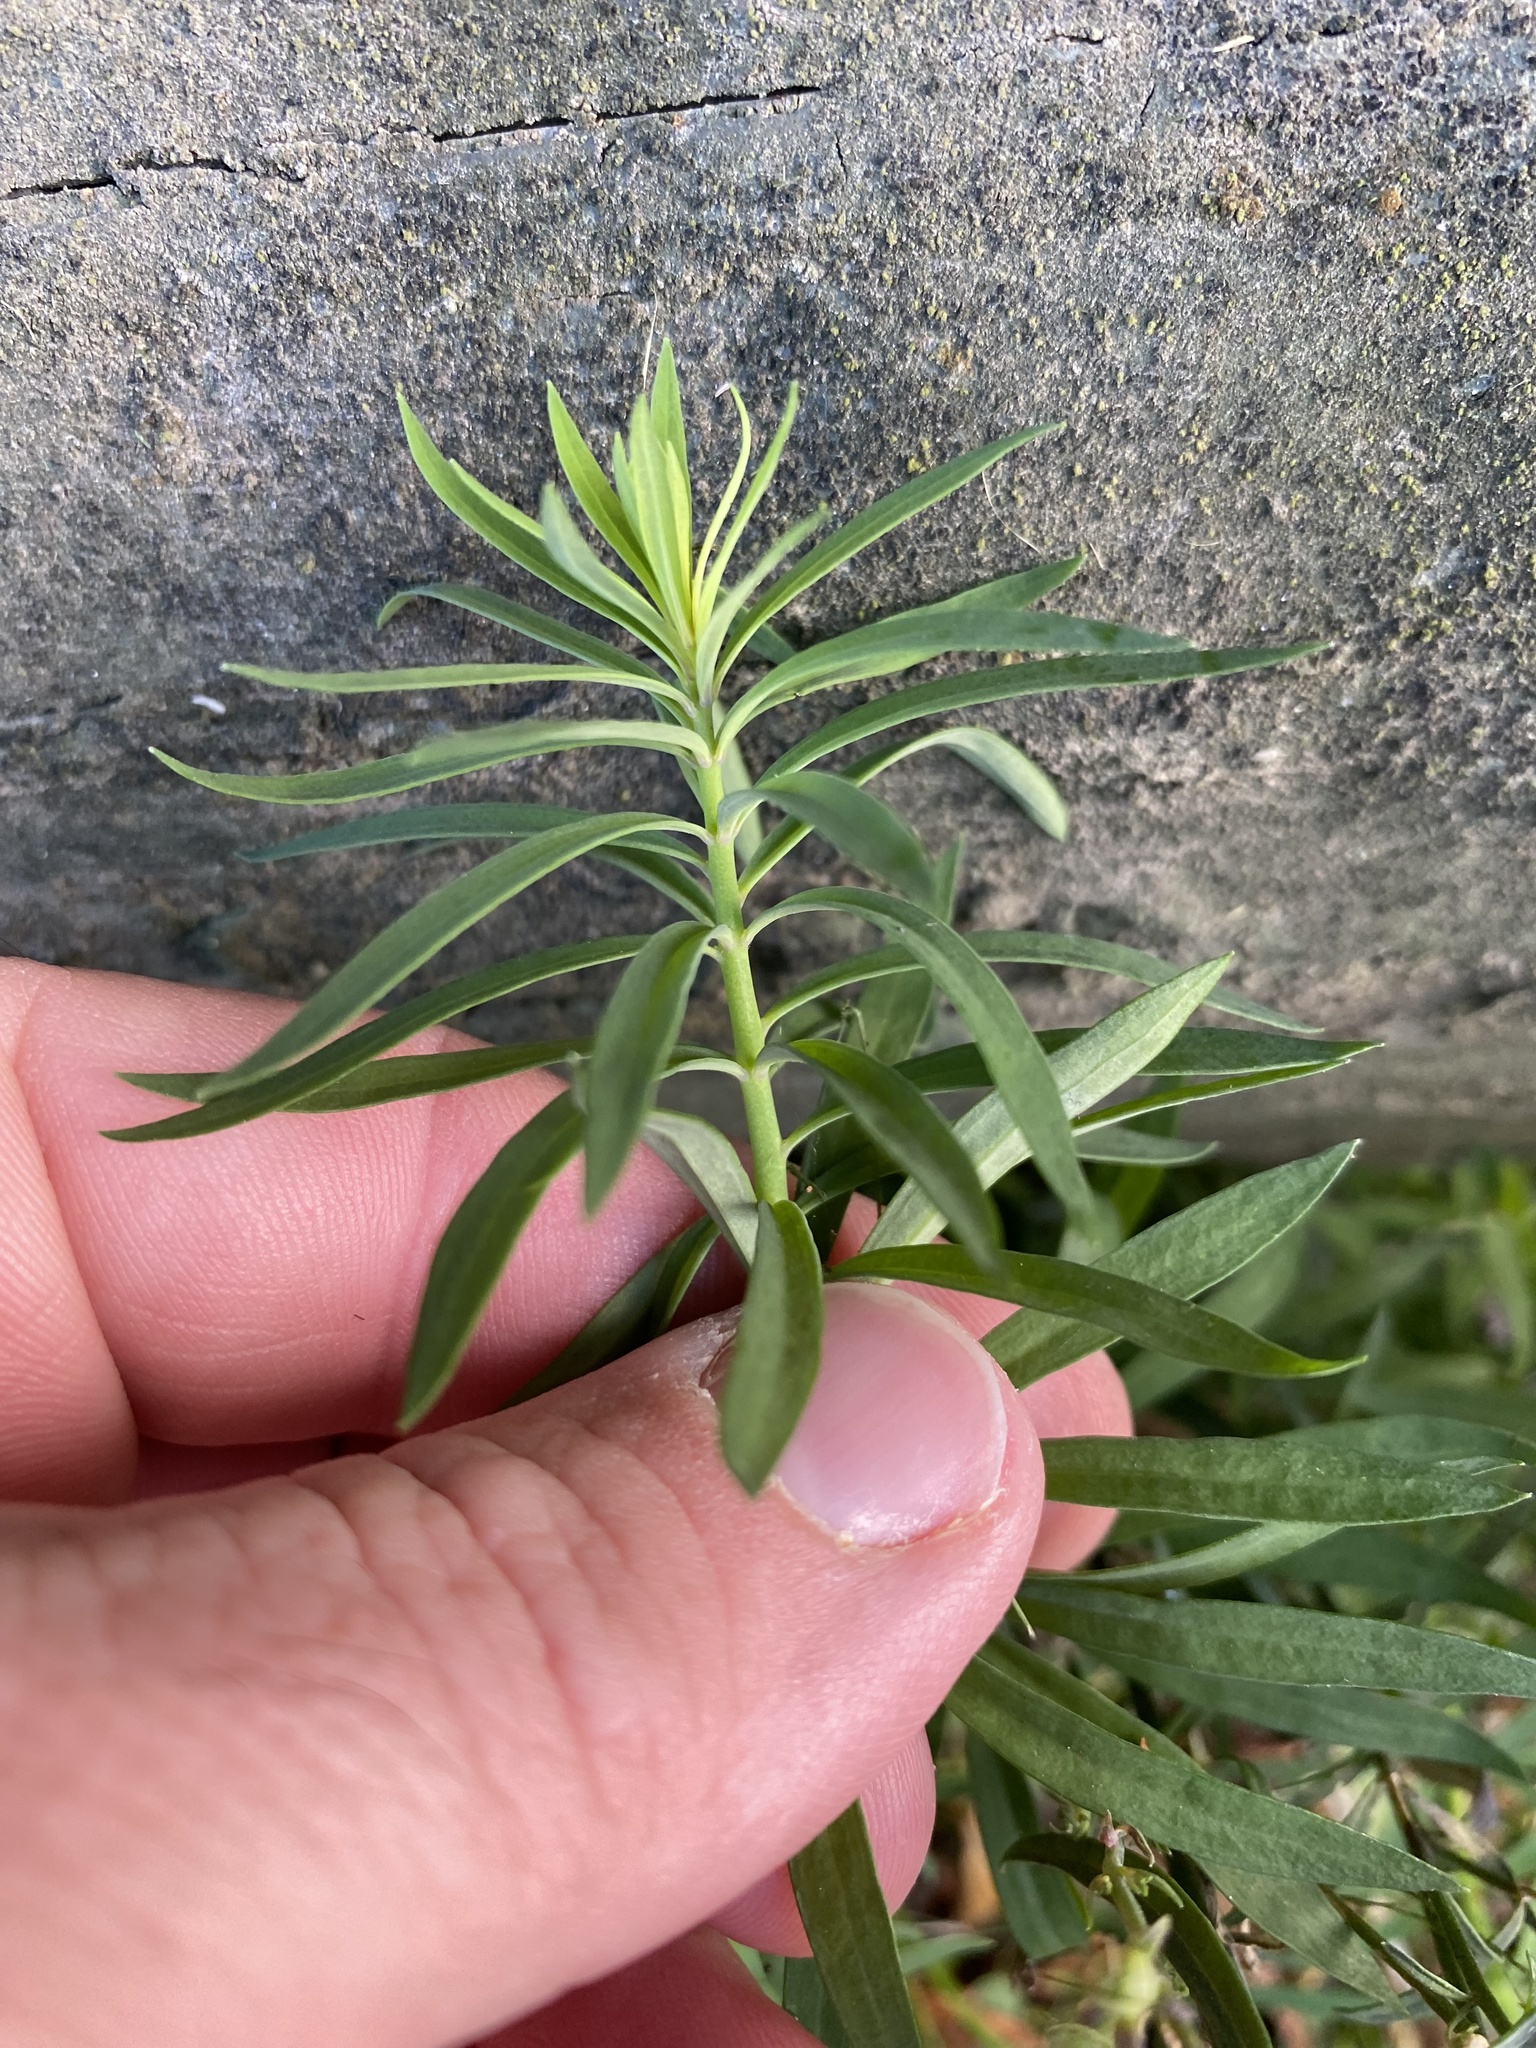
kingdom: Plantae
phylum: Tracheophyta
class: Magnoliopsida
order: Lamiales
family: Plantaginaceae
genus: Linaria
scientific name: Linaria purpurea
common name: Purple toadflax
